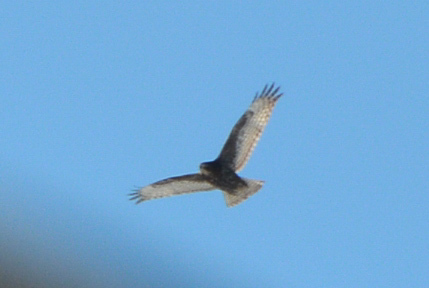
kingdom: Animalia
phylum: Chordata
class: Aves
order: Accipitriformes
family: Accipitridae
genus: Buteo
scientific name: Buteo jamaicensis
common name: Red-tailed hawk
